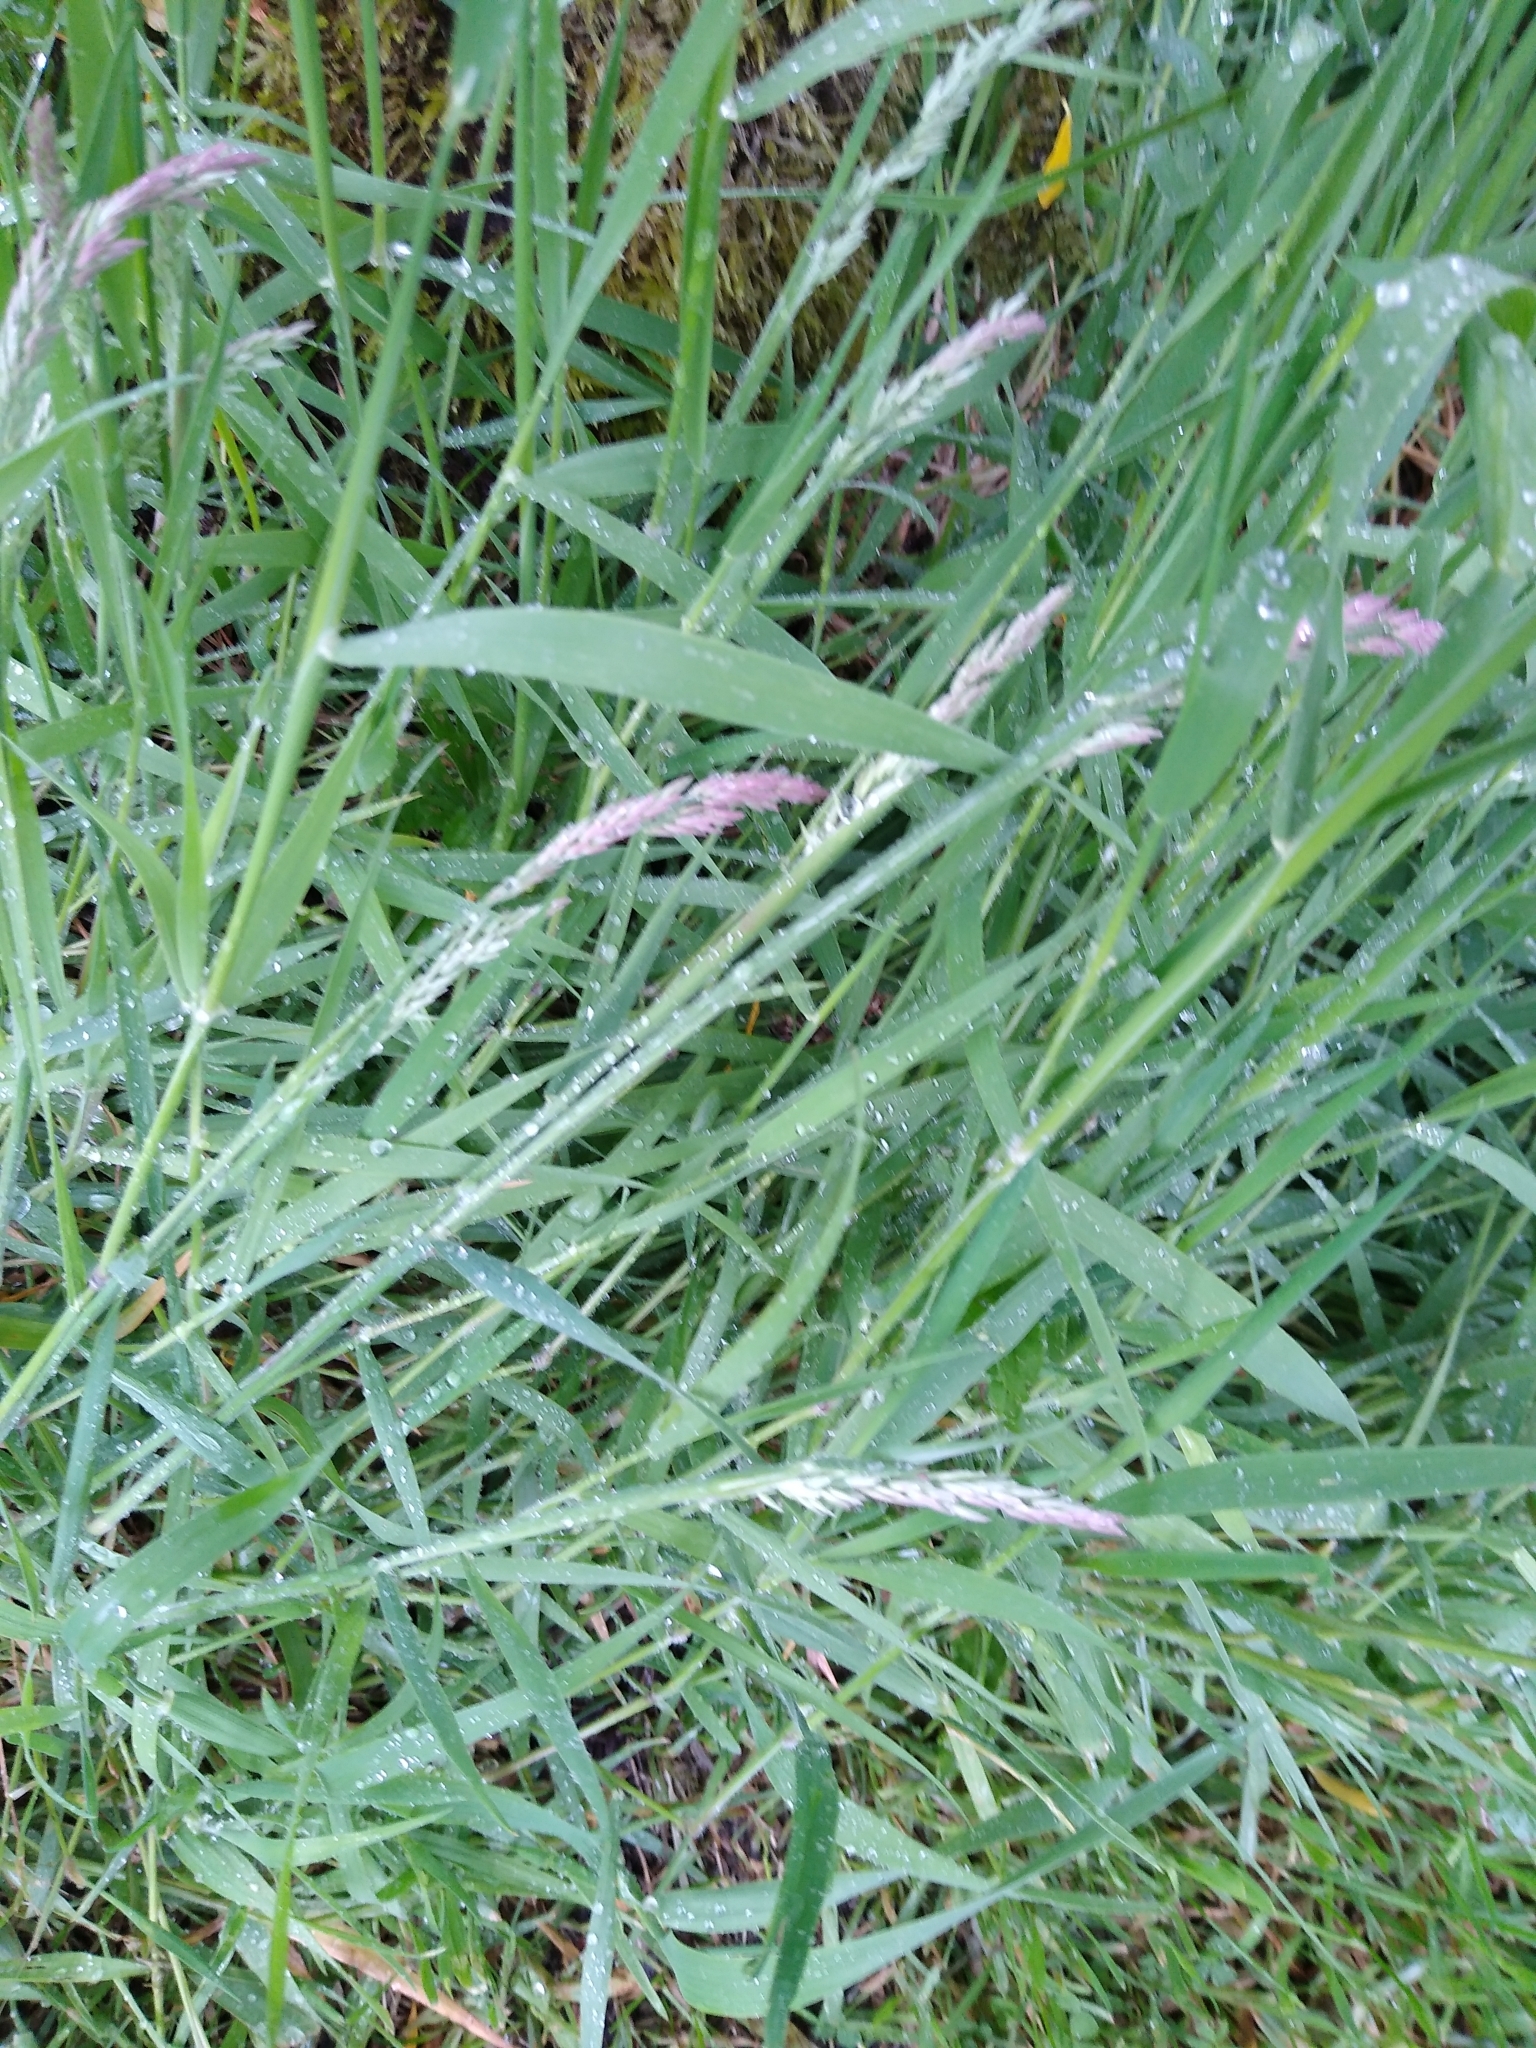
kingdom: Plantae
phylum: Tracheophyta
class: Liliopsida
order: Poales
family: Poaceae
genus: Holcus
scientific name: Holcus lanatus
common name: Yorkshire-fog
